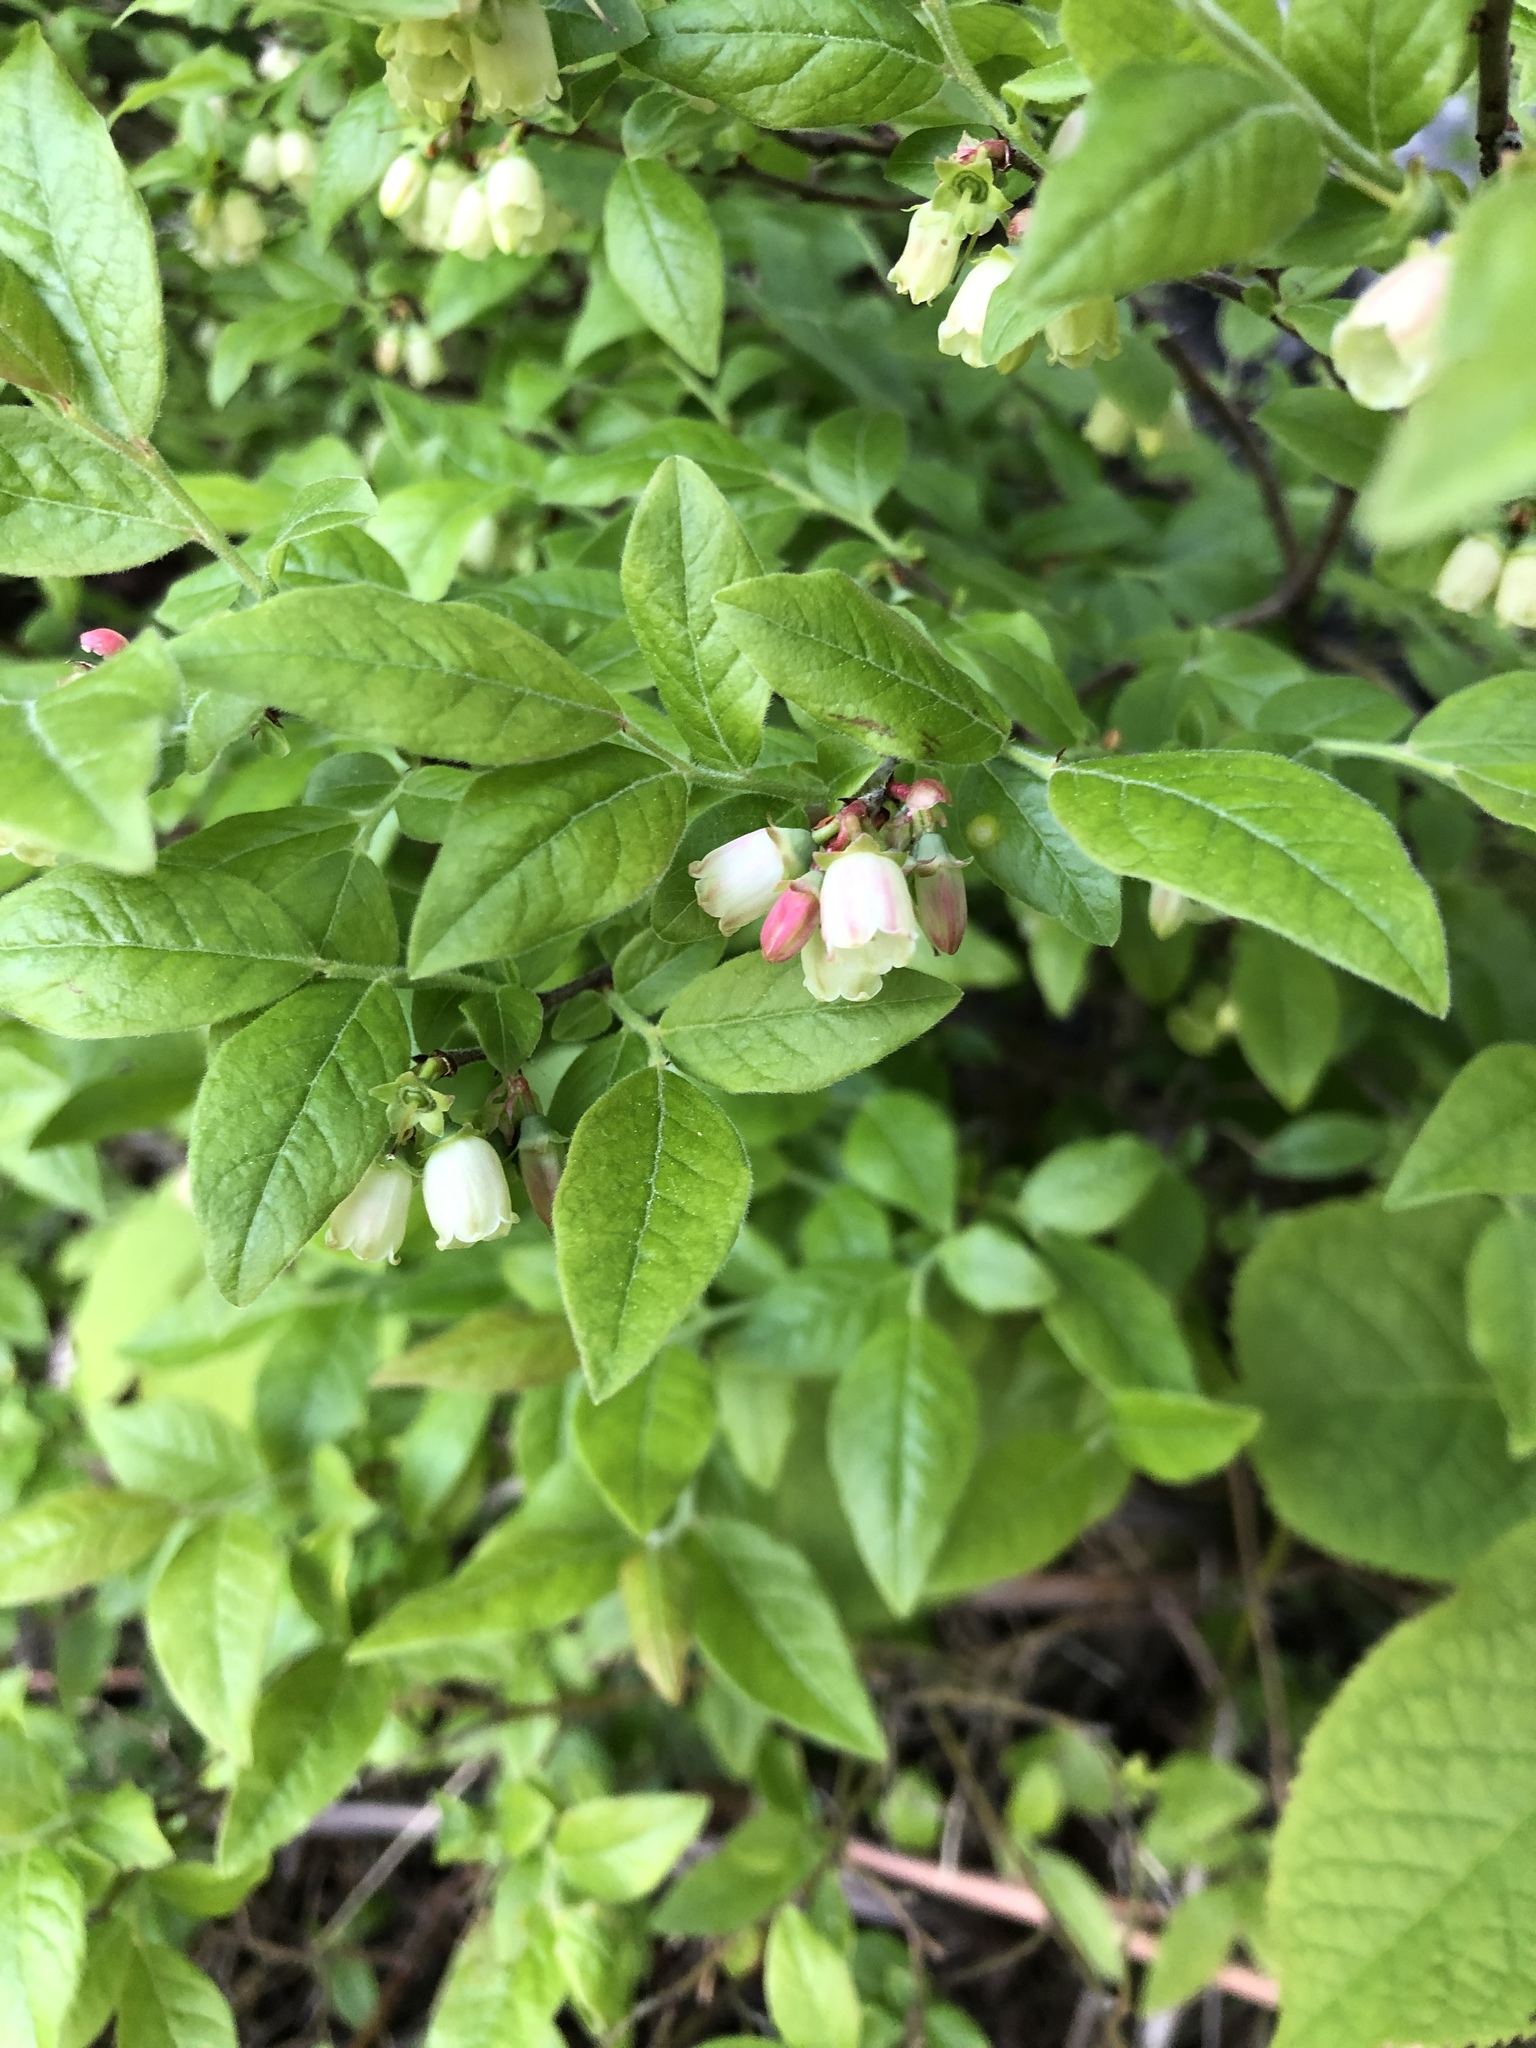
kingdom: Plantae
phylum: Tracheophyta
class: Magnoliopsida
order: Ericales
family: Ericaceae
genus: Vaccinium
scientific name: Vaccinium myrtilloides
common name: Canada blueberry
